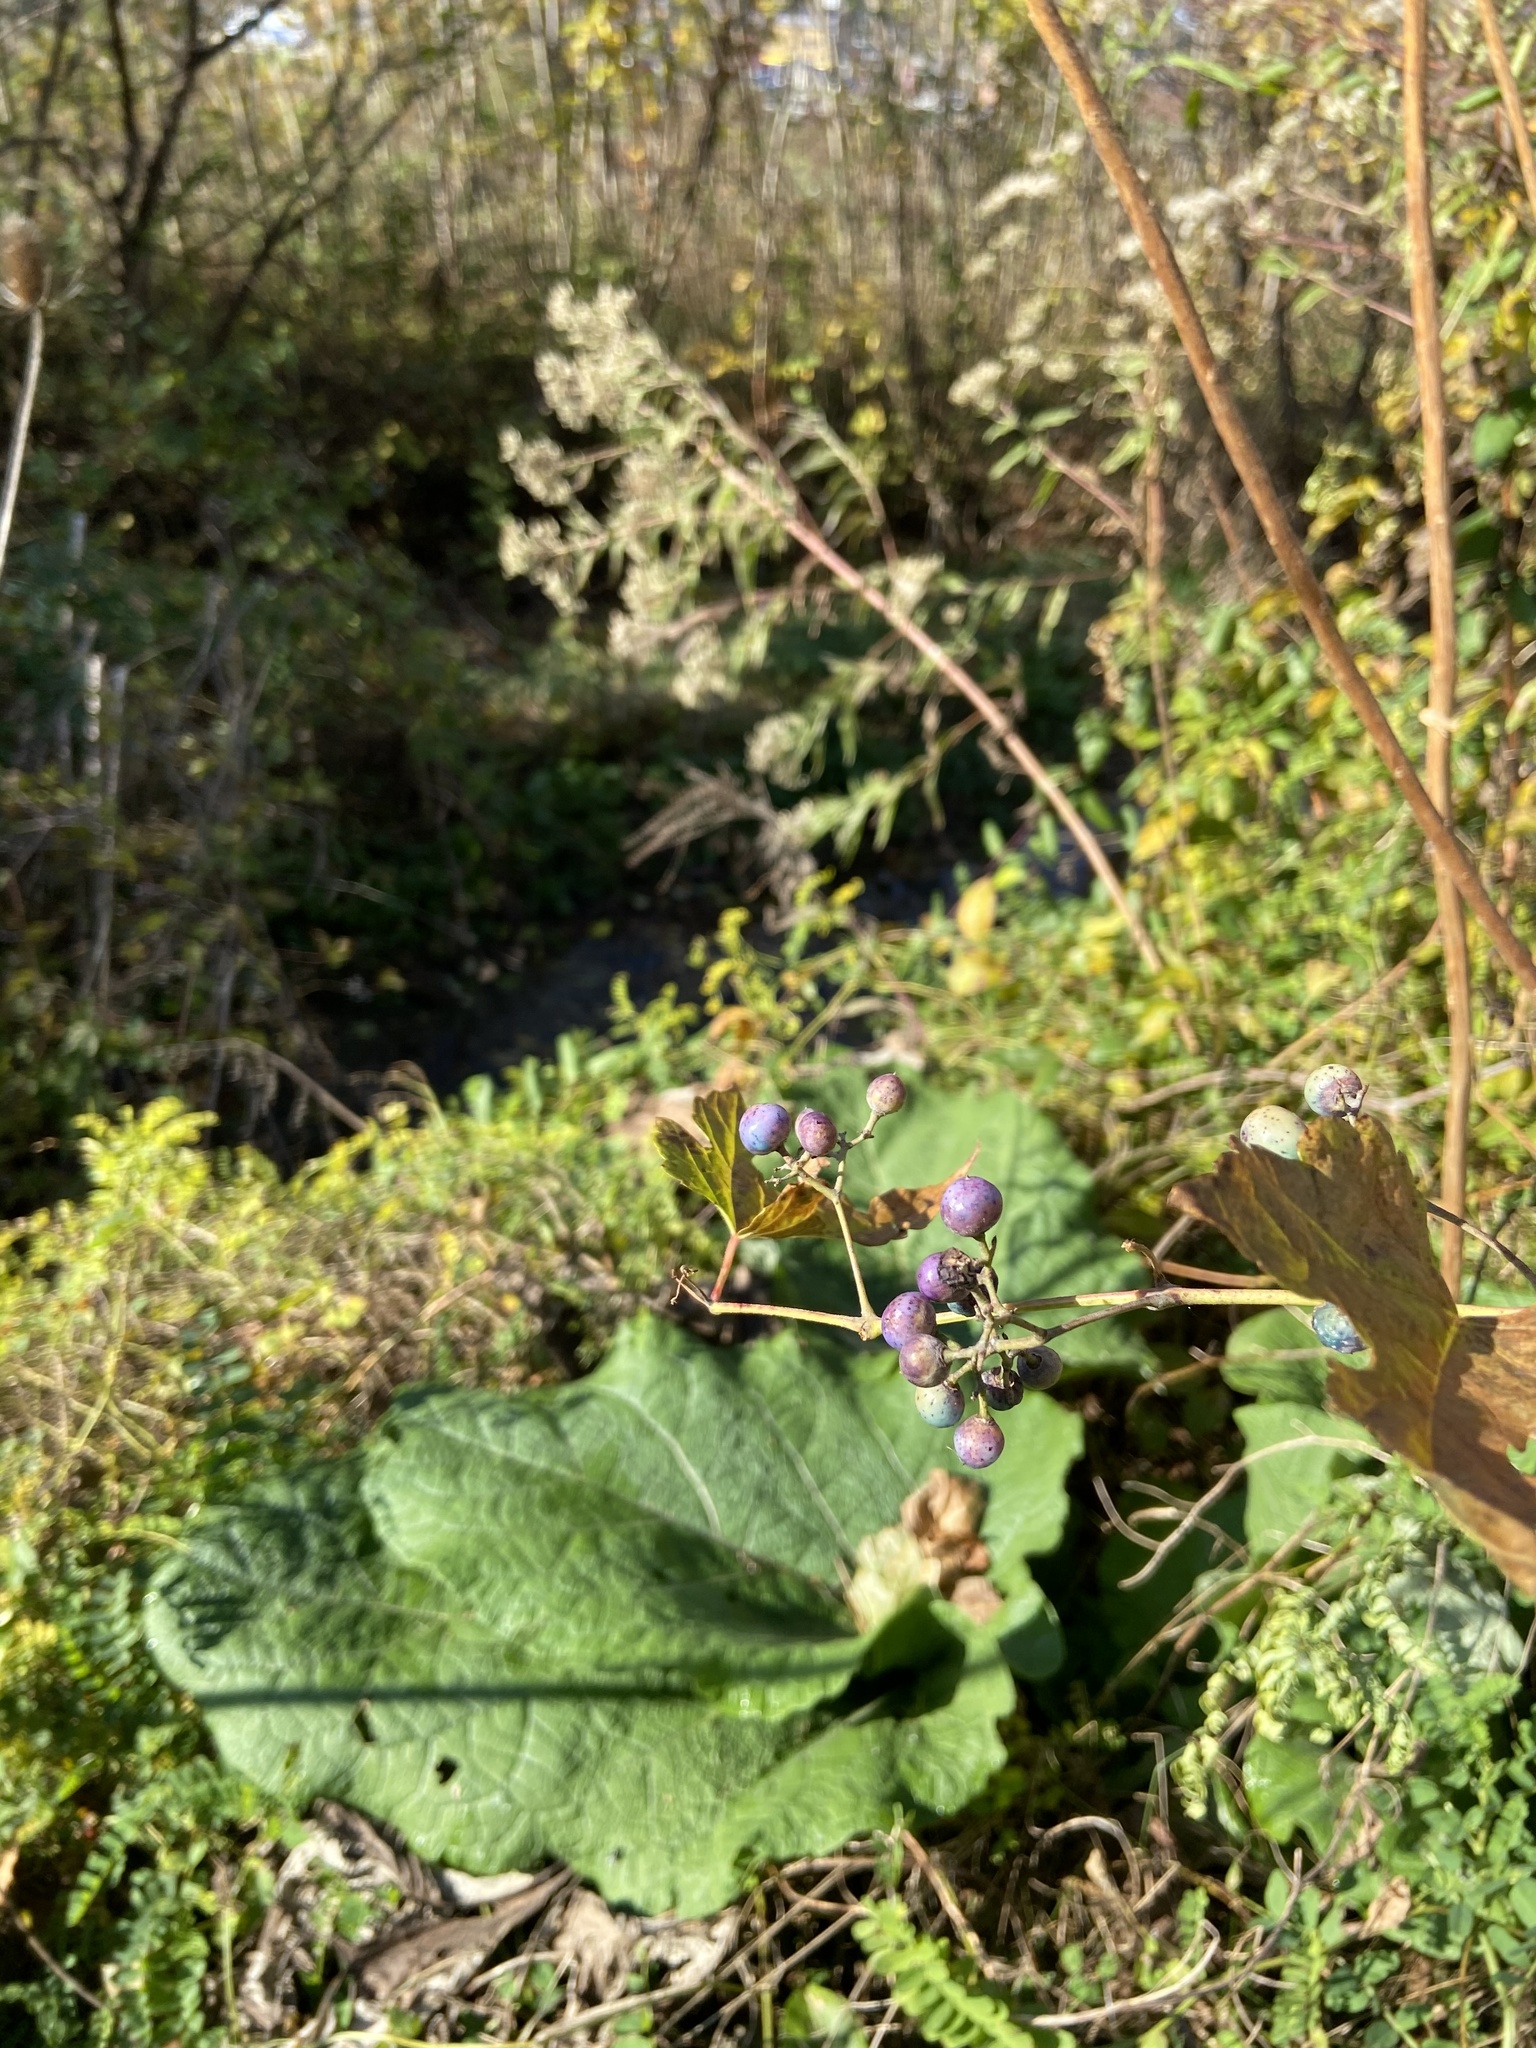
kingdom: Plantae
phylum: Tracheophyta
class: Magnoliopsida
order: Vitales
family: Vitaceae
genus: Ampelopsis
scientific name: Ampelopsis glandulosa
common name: Amur peppervine
